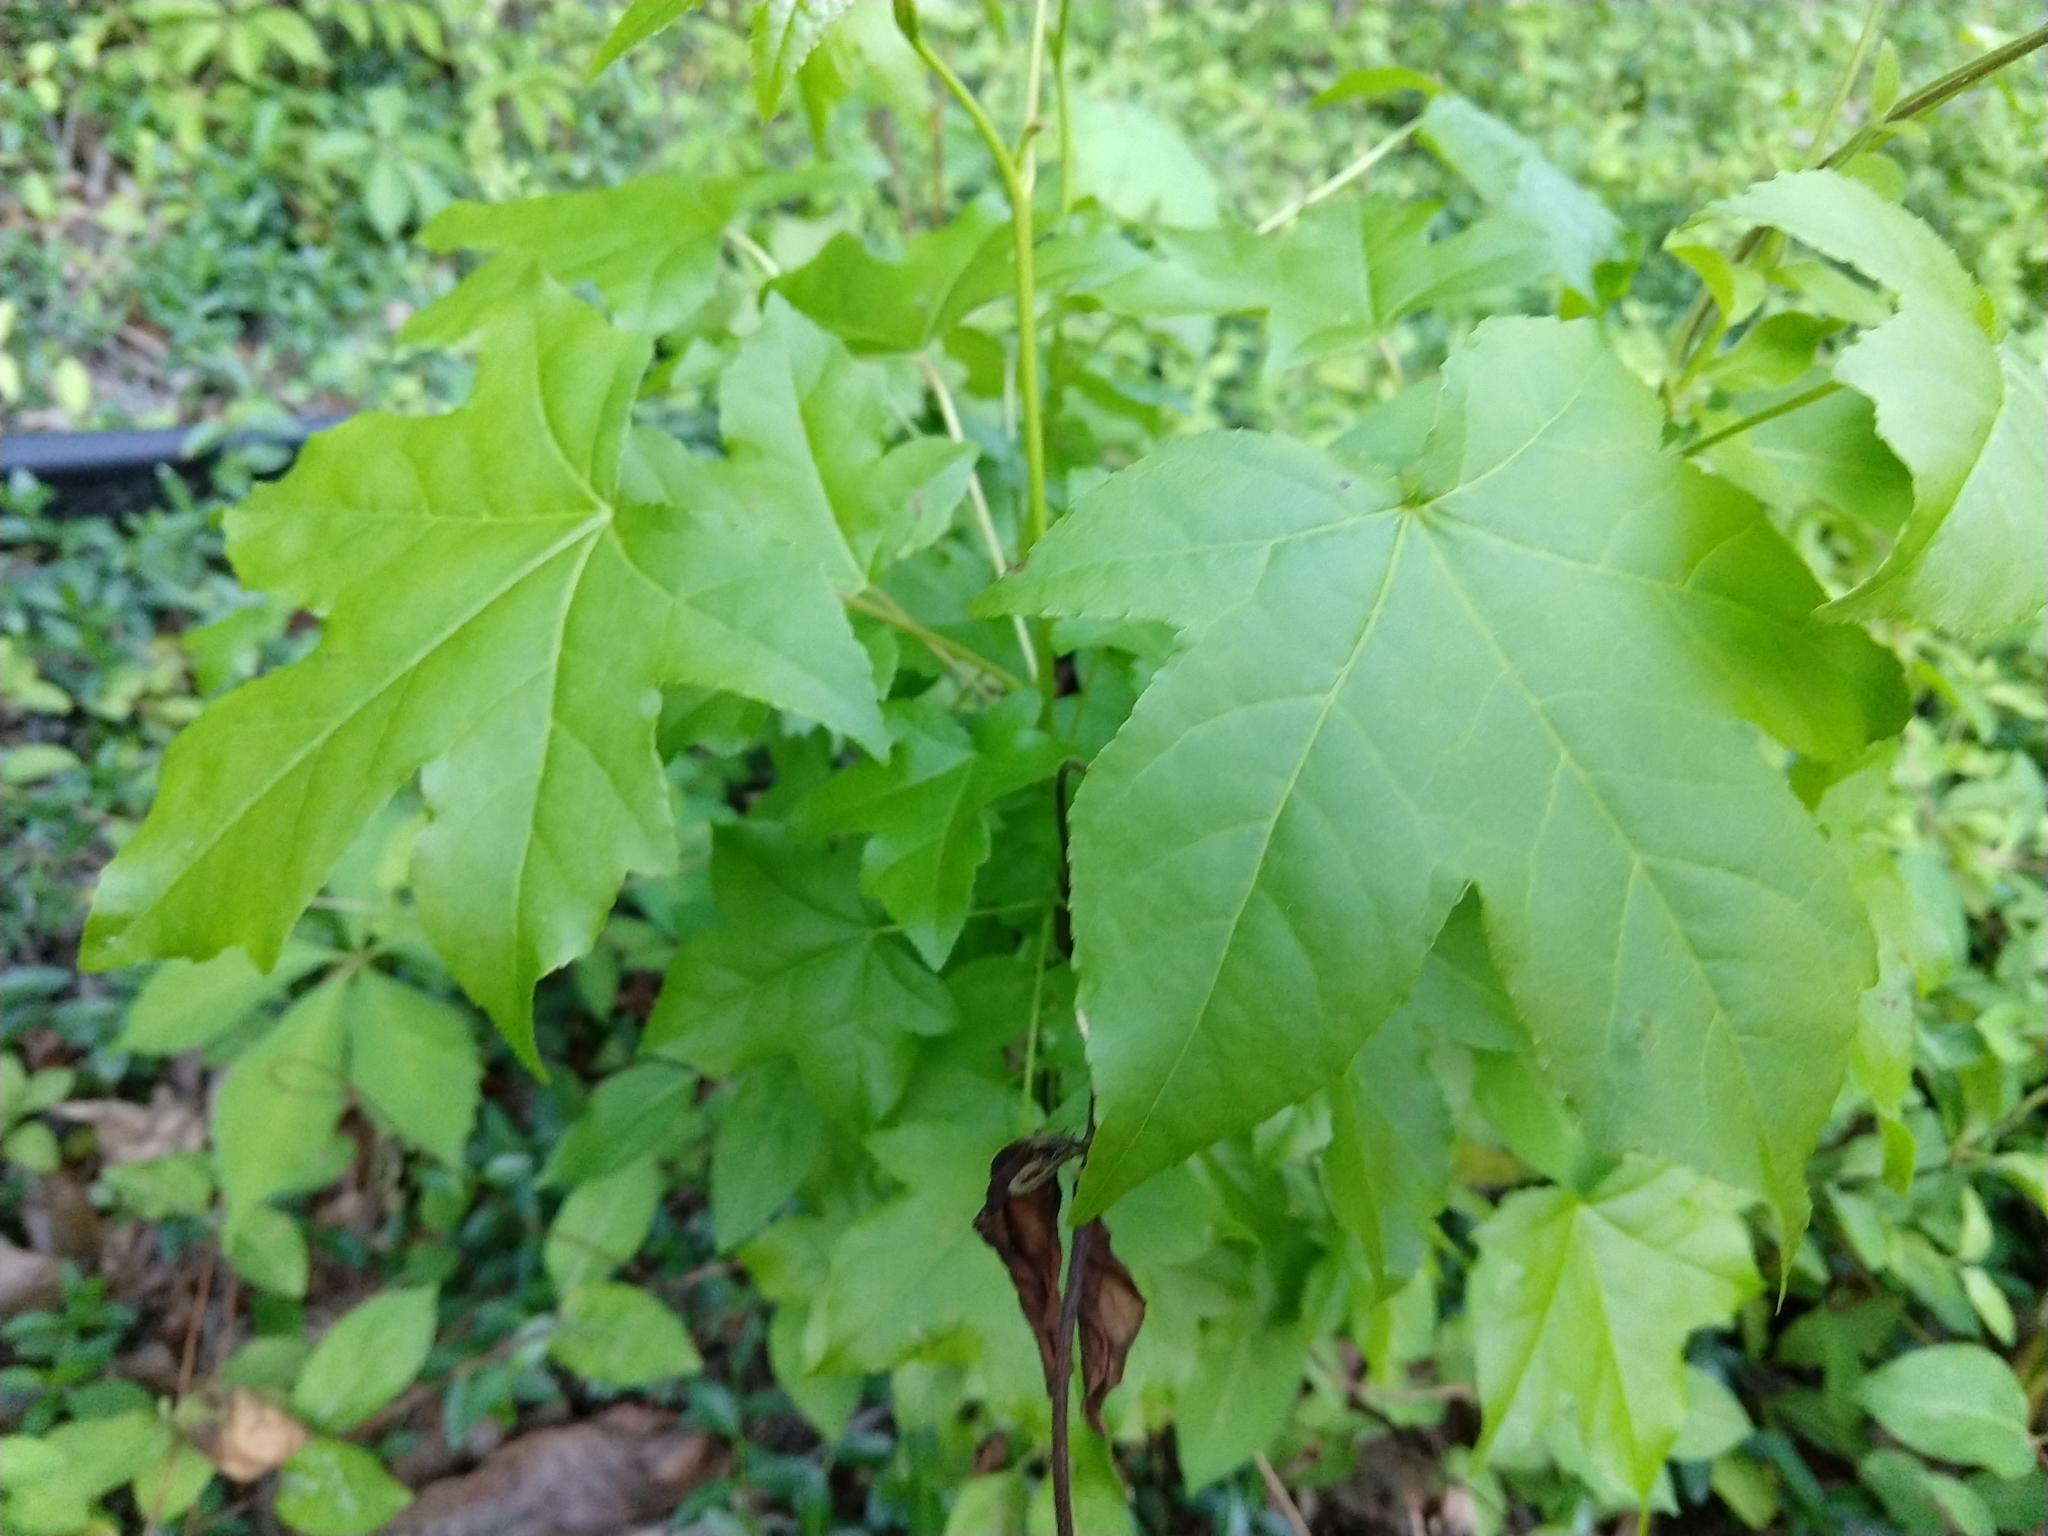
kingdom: Plantae
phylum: Tracheophyta
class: Magnoliopsida
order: Saxifragales
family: Altingiaceae
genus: Liquidambar
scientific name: Liquidambar styraciflua
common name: Sweet gum
